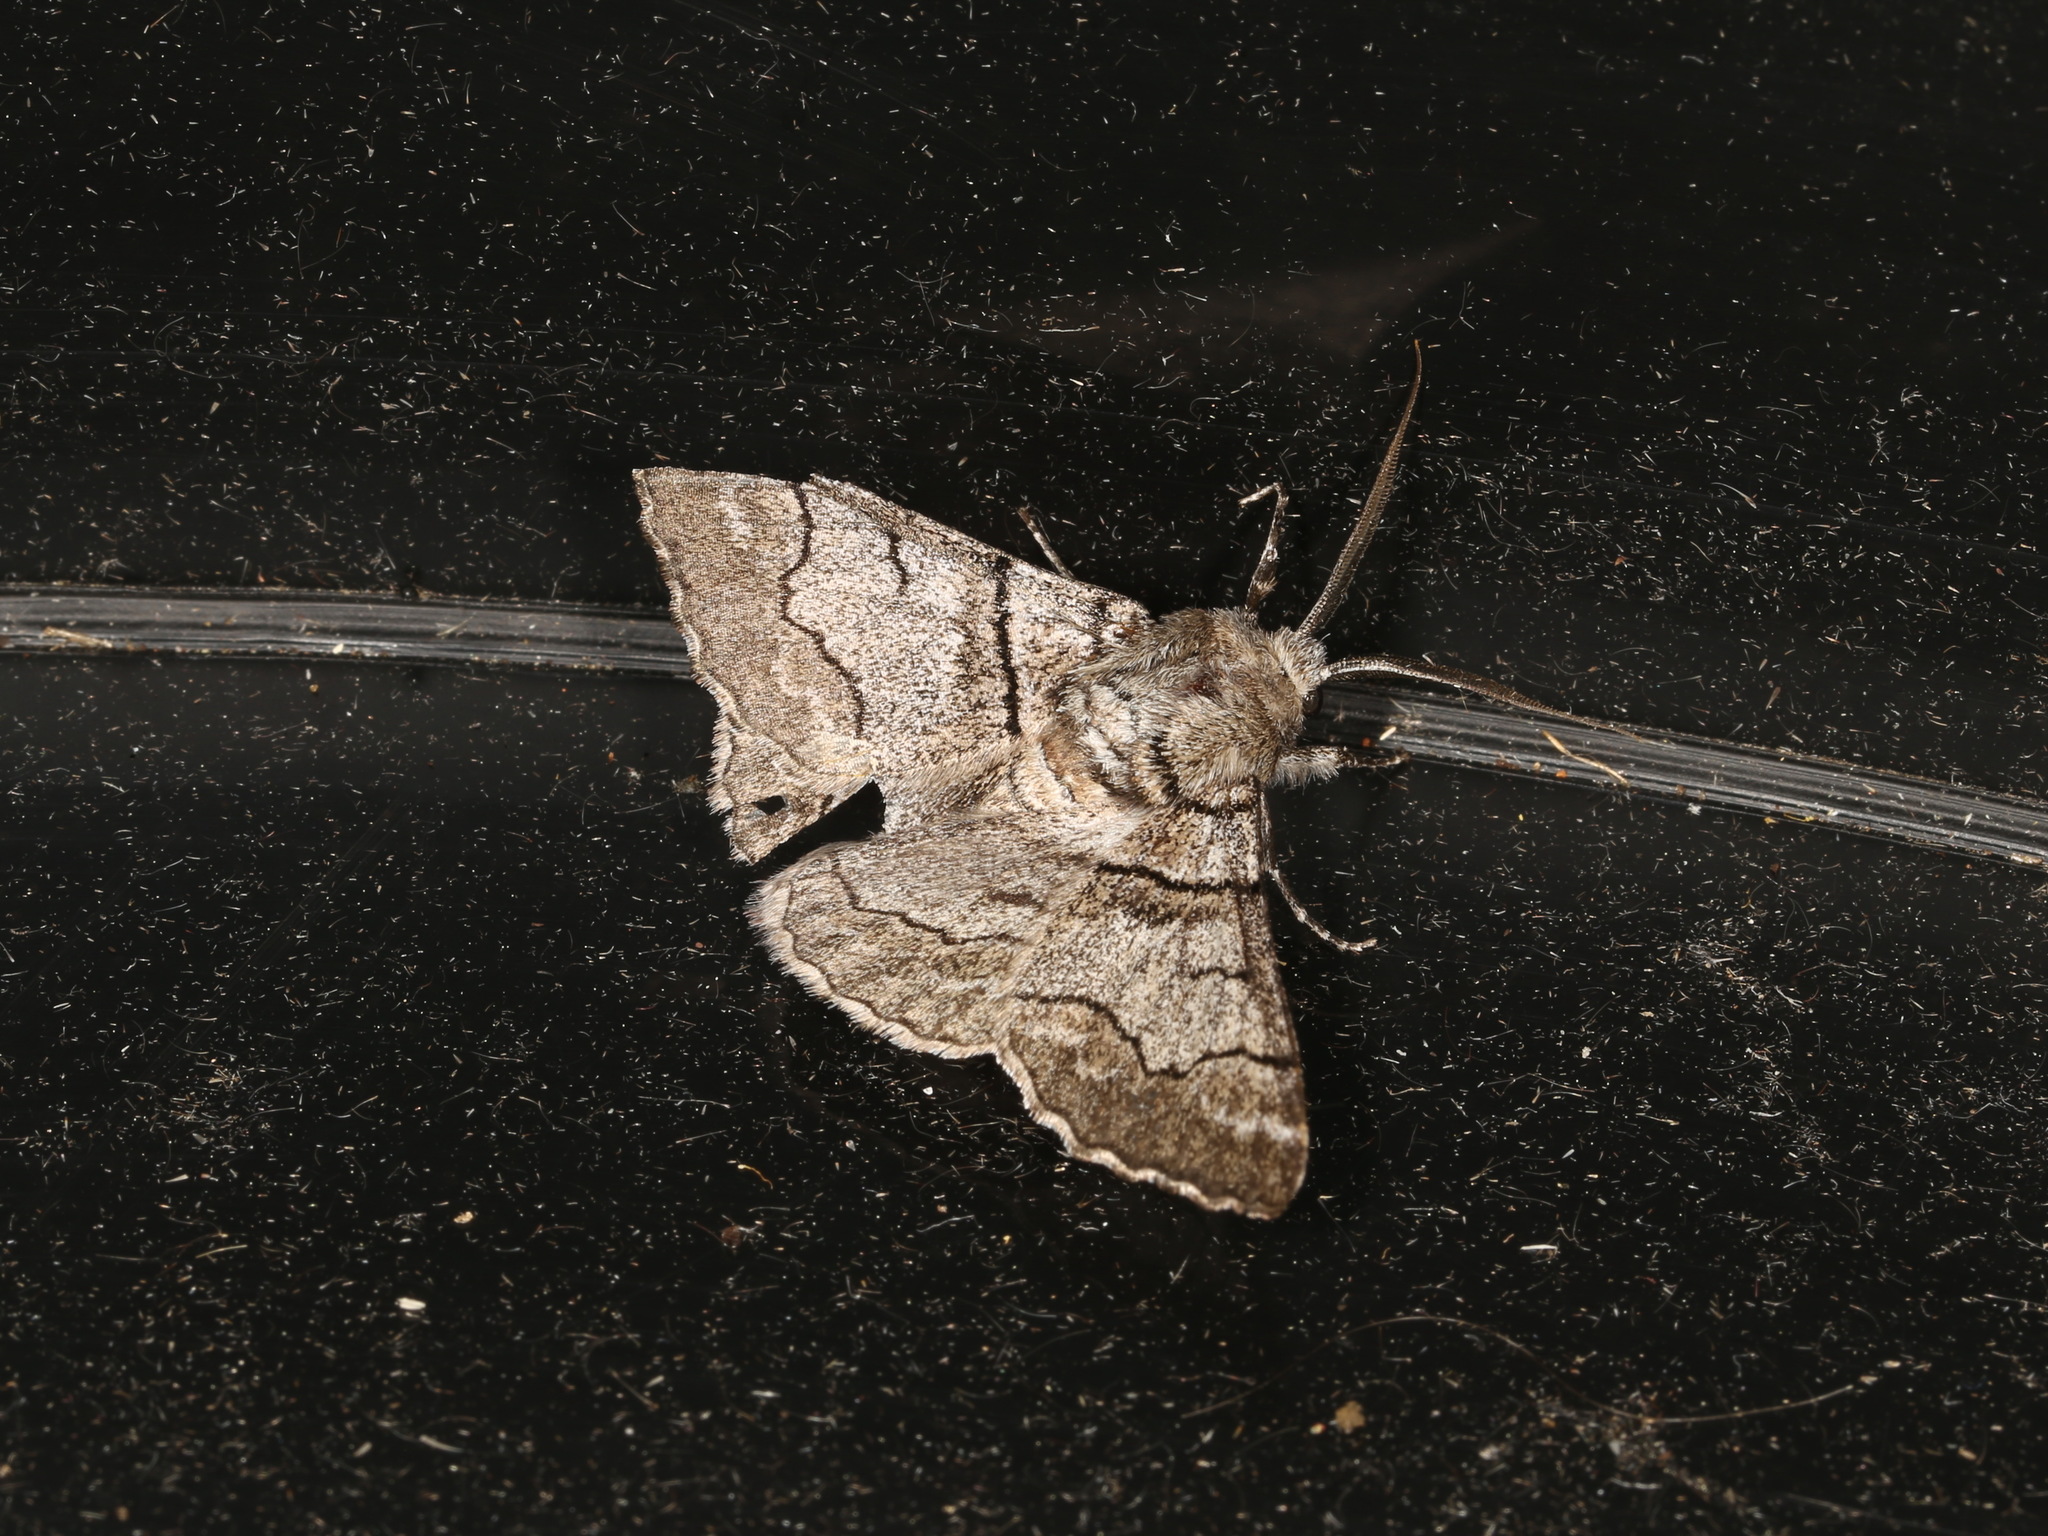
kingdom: Animalia
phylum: Arthropoda
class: Insecta
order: Lepidoptera
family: Geometridae
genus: Hypobapta
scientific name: Hypobapta diffundens
